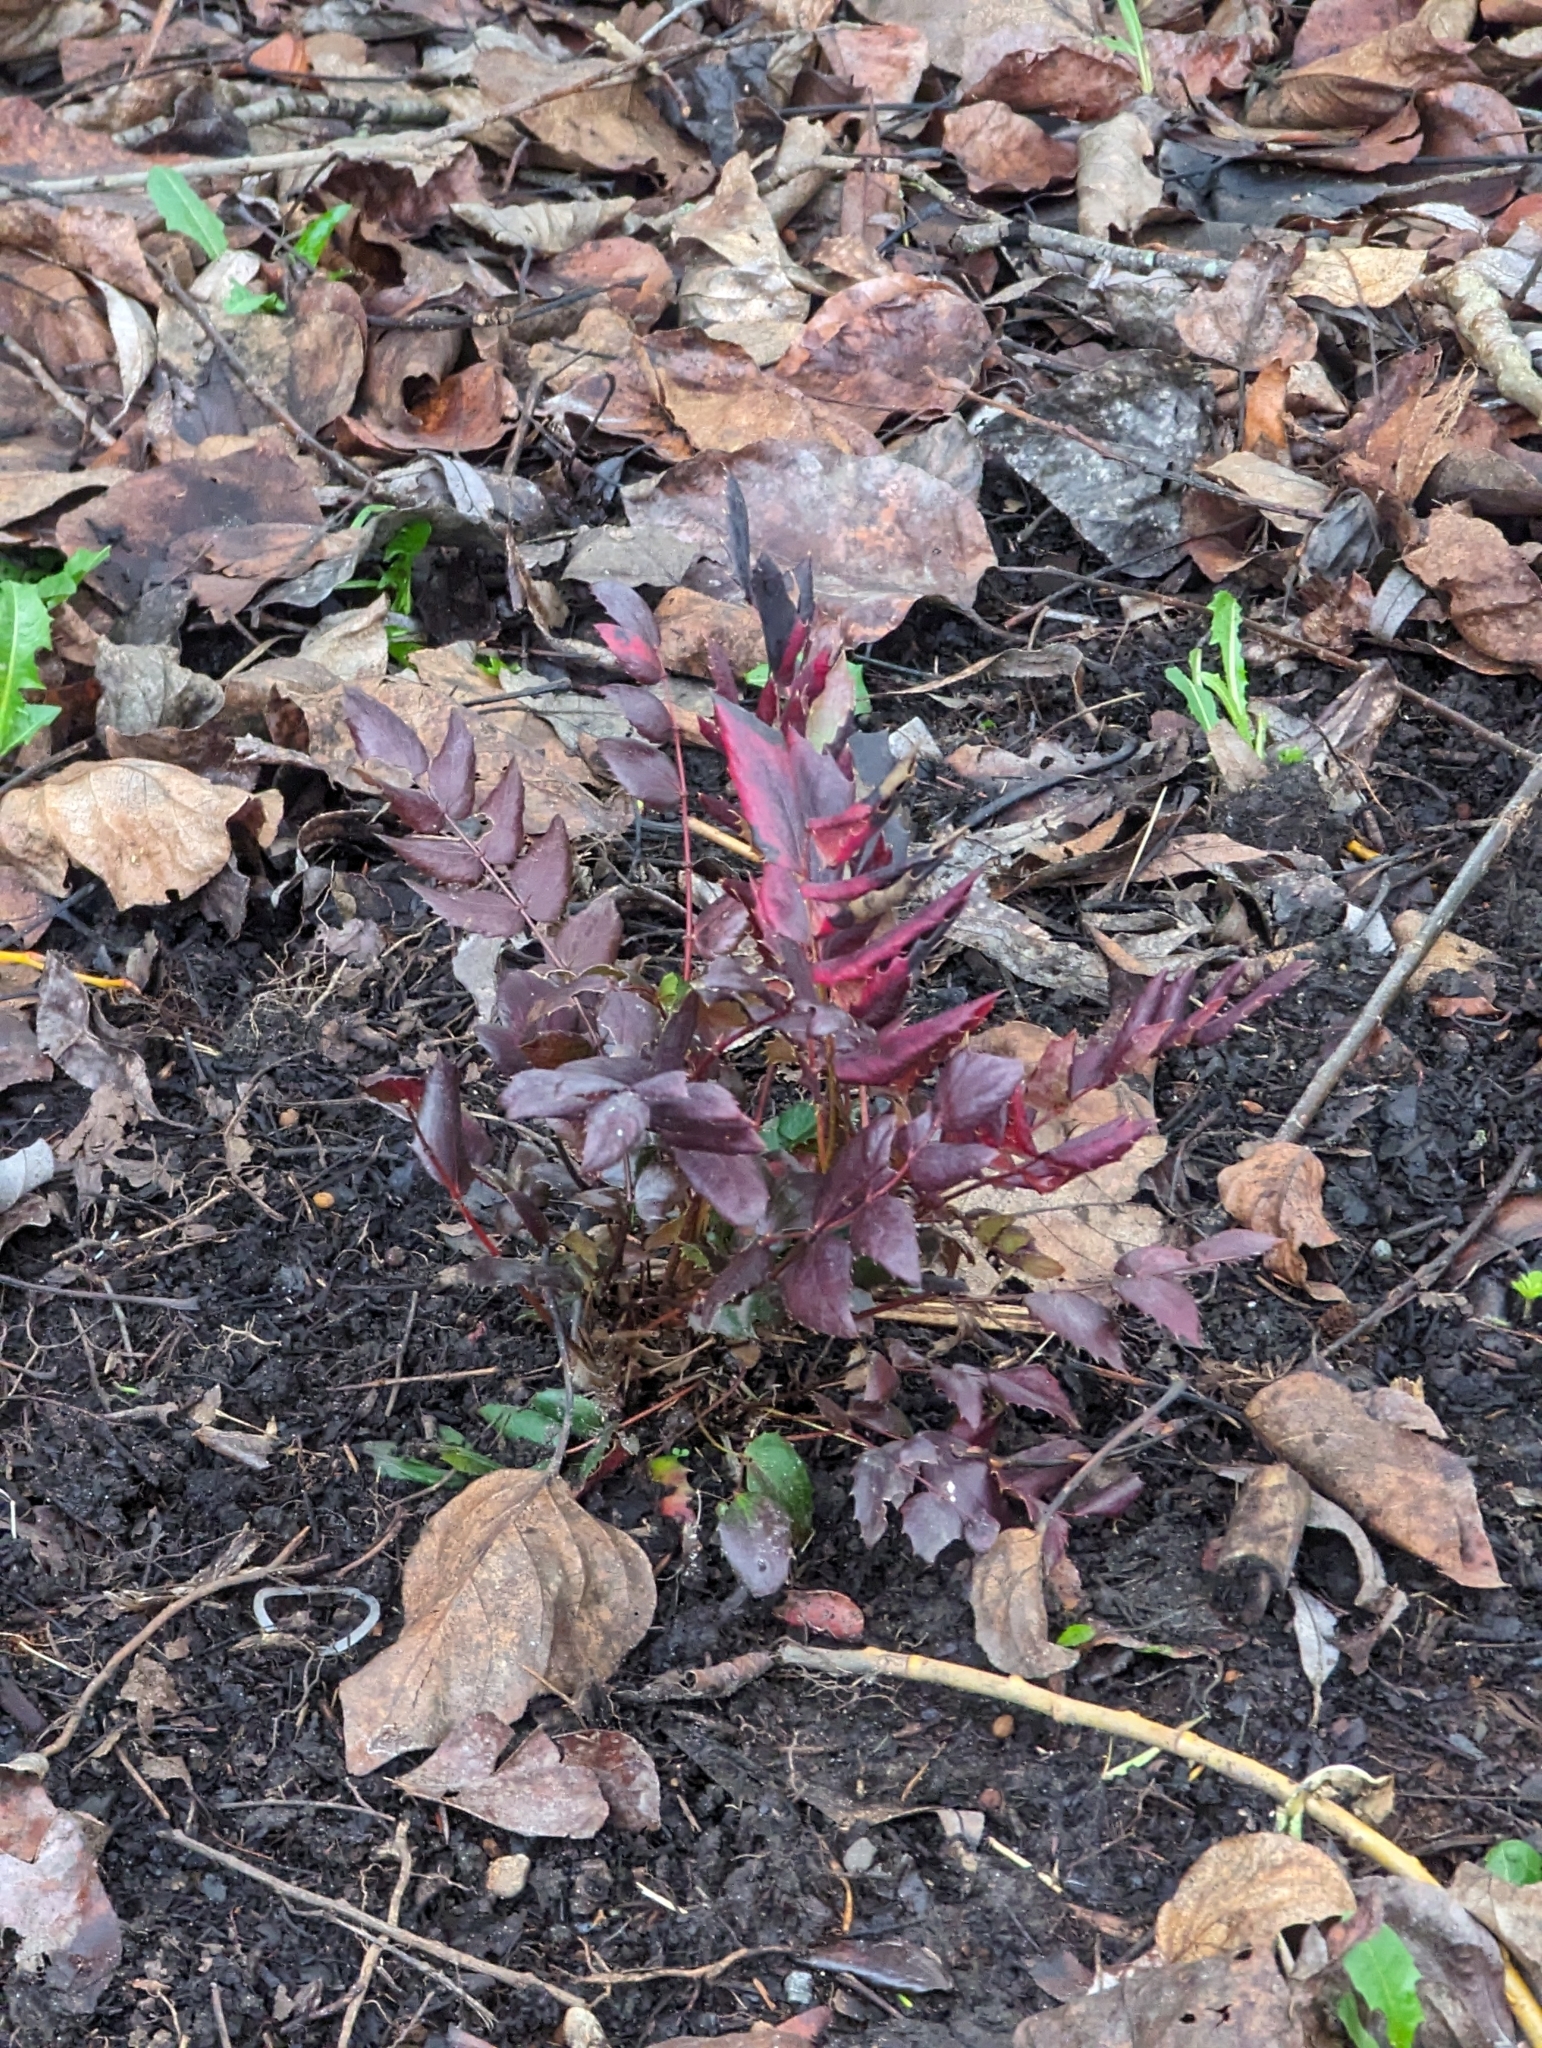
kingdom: Plantae
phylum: Tracheophyta
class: Magnoliopsida
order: Ranunculales
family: Berberidaceae
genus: Mahonia
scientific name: Mahonia nervosa
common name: Cascade oregon-grape
